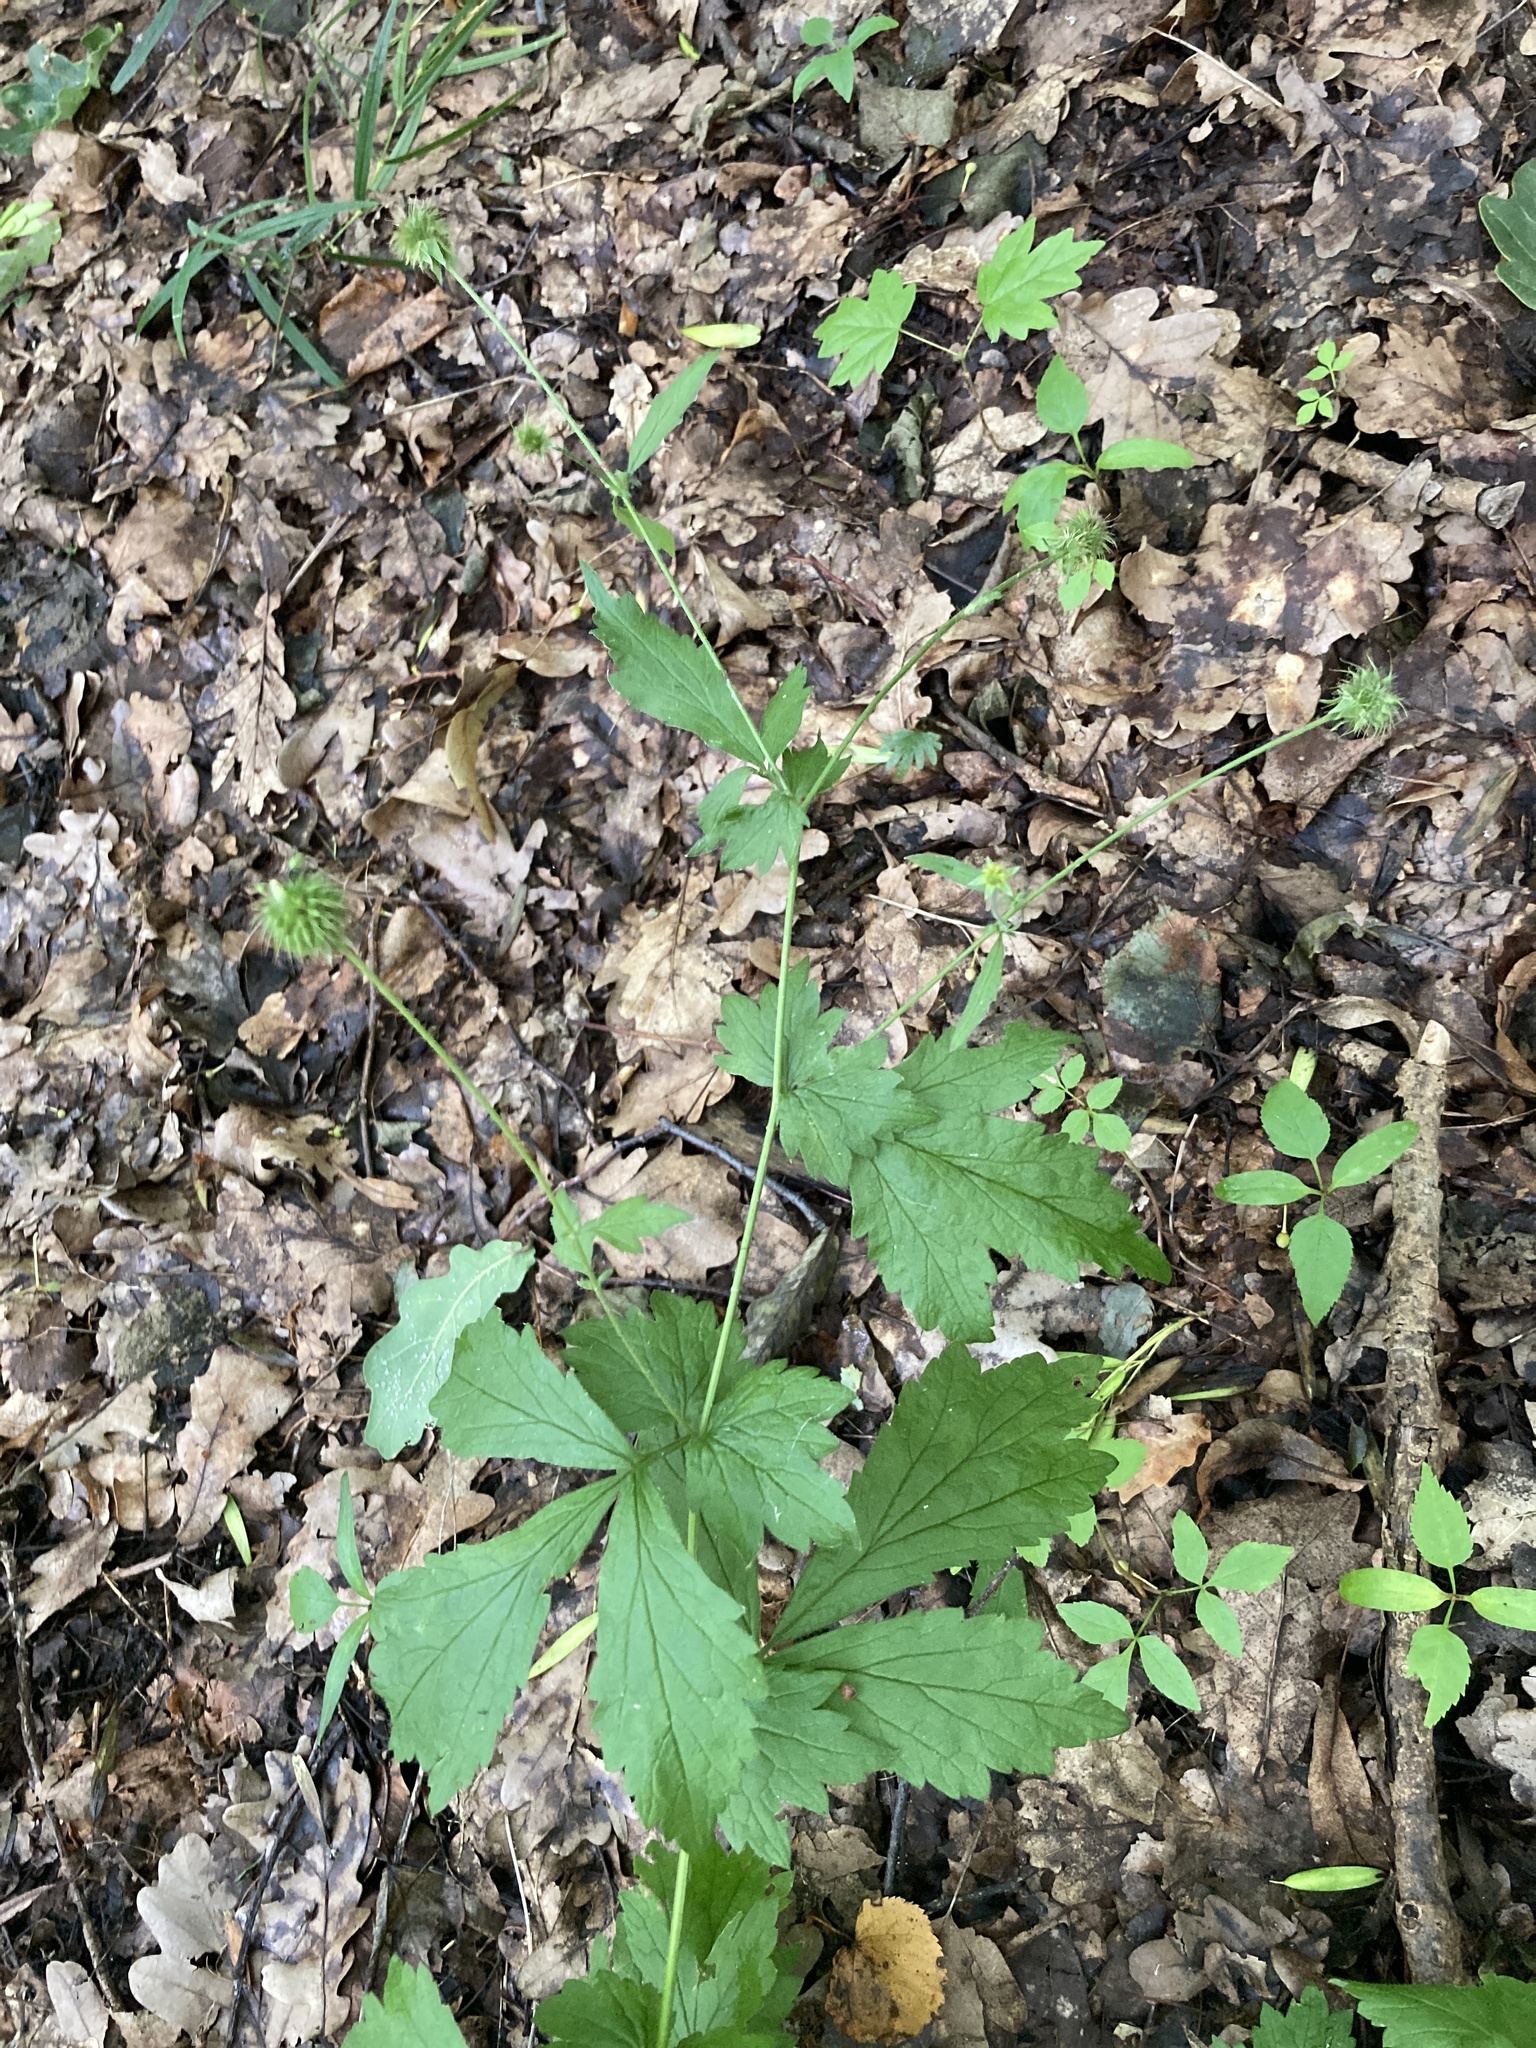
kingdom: Plantae
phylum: Tracheophyta
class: Magnoliopsida
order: Rosales
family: Rosaceae
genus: Geum
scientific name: Geum urbanum
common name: Wood avens
